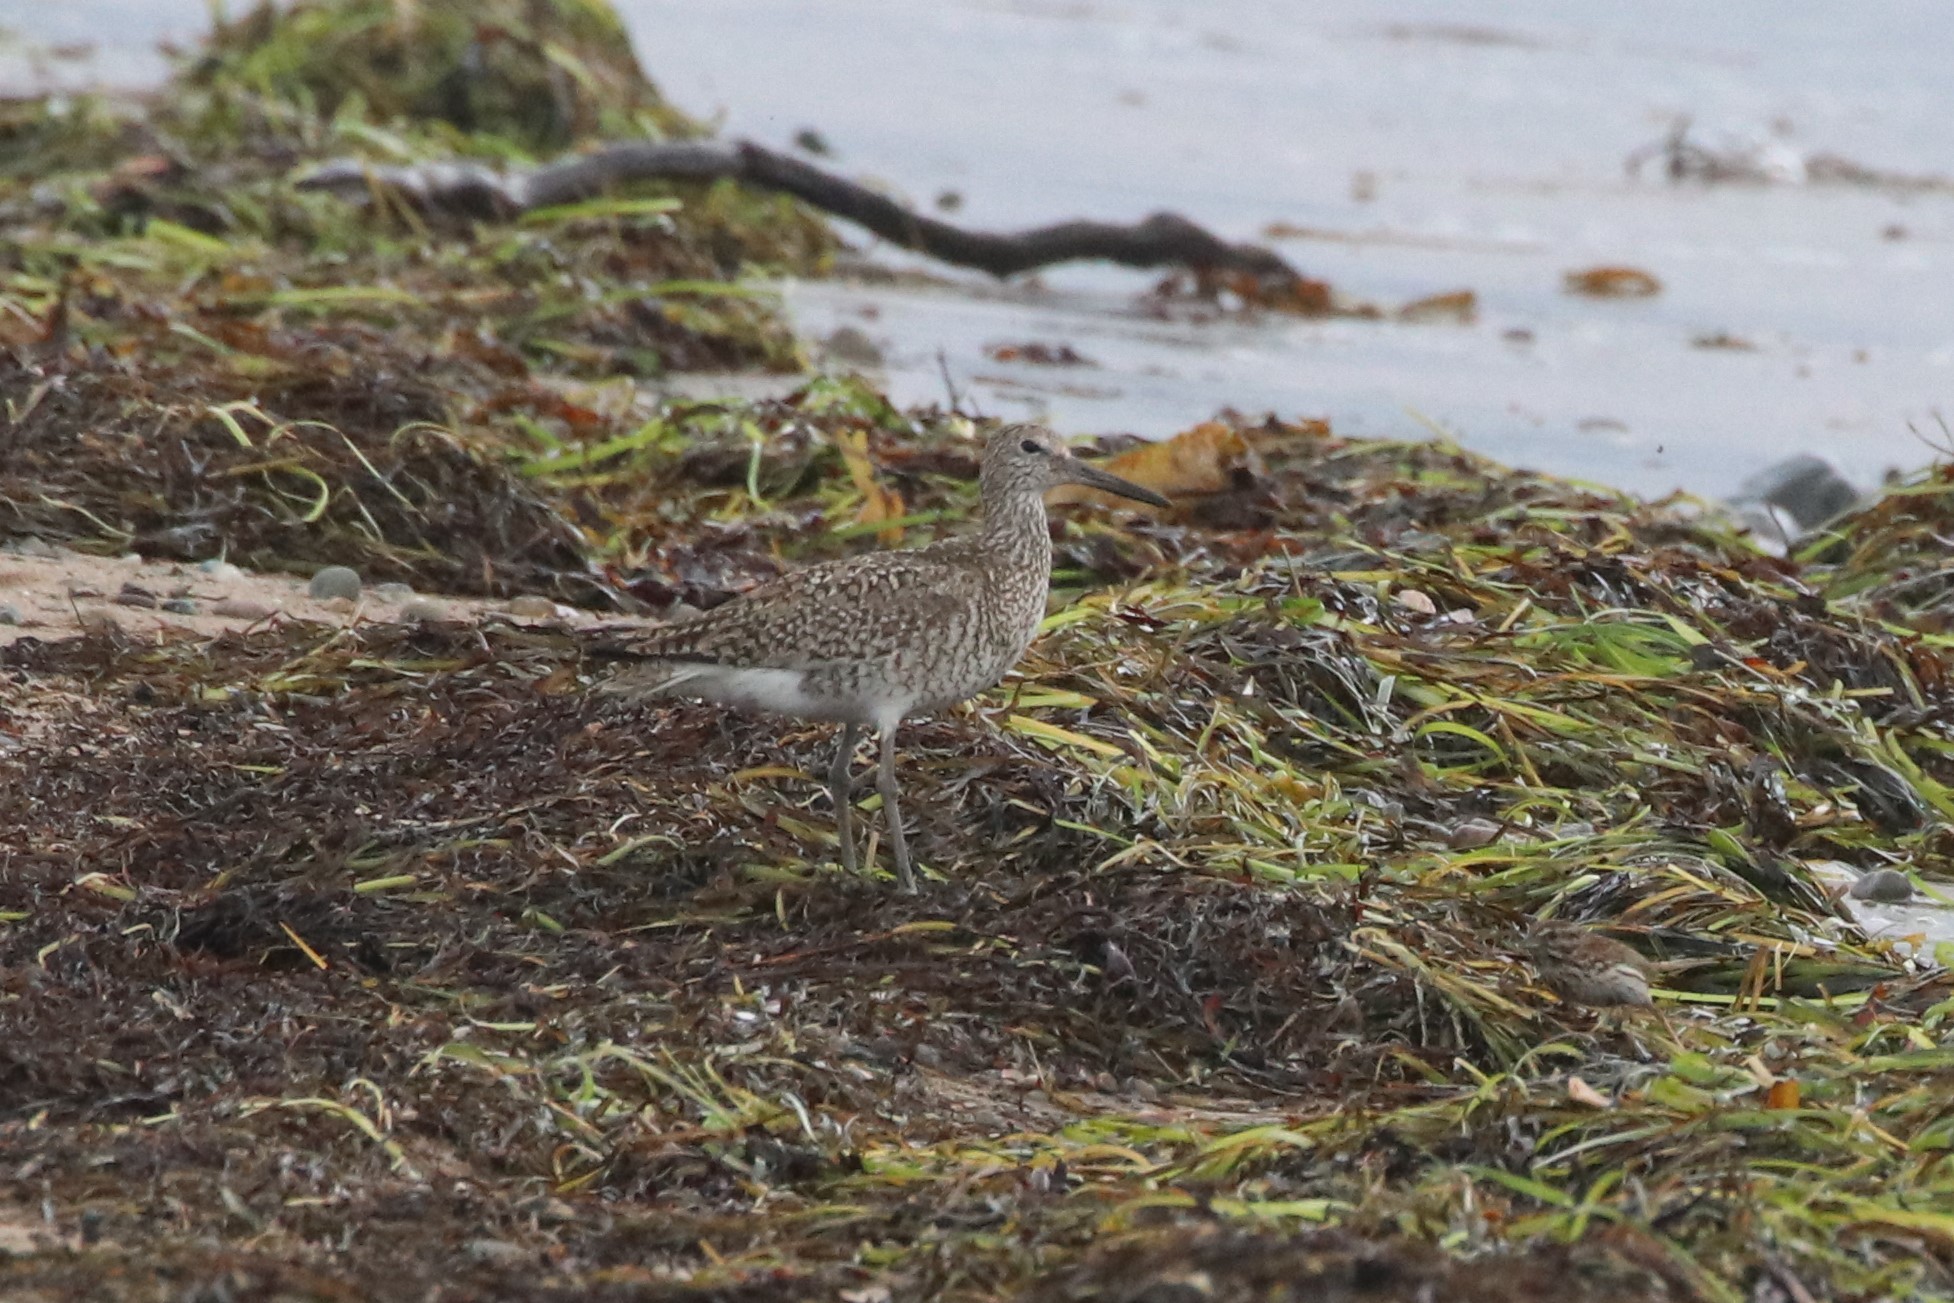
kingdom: Animalia
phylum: Chordata
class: Aves
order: Charadriiformes
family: Scolopacidae
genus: Tringa
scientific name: Tringa semipalmata
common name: Willet
